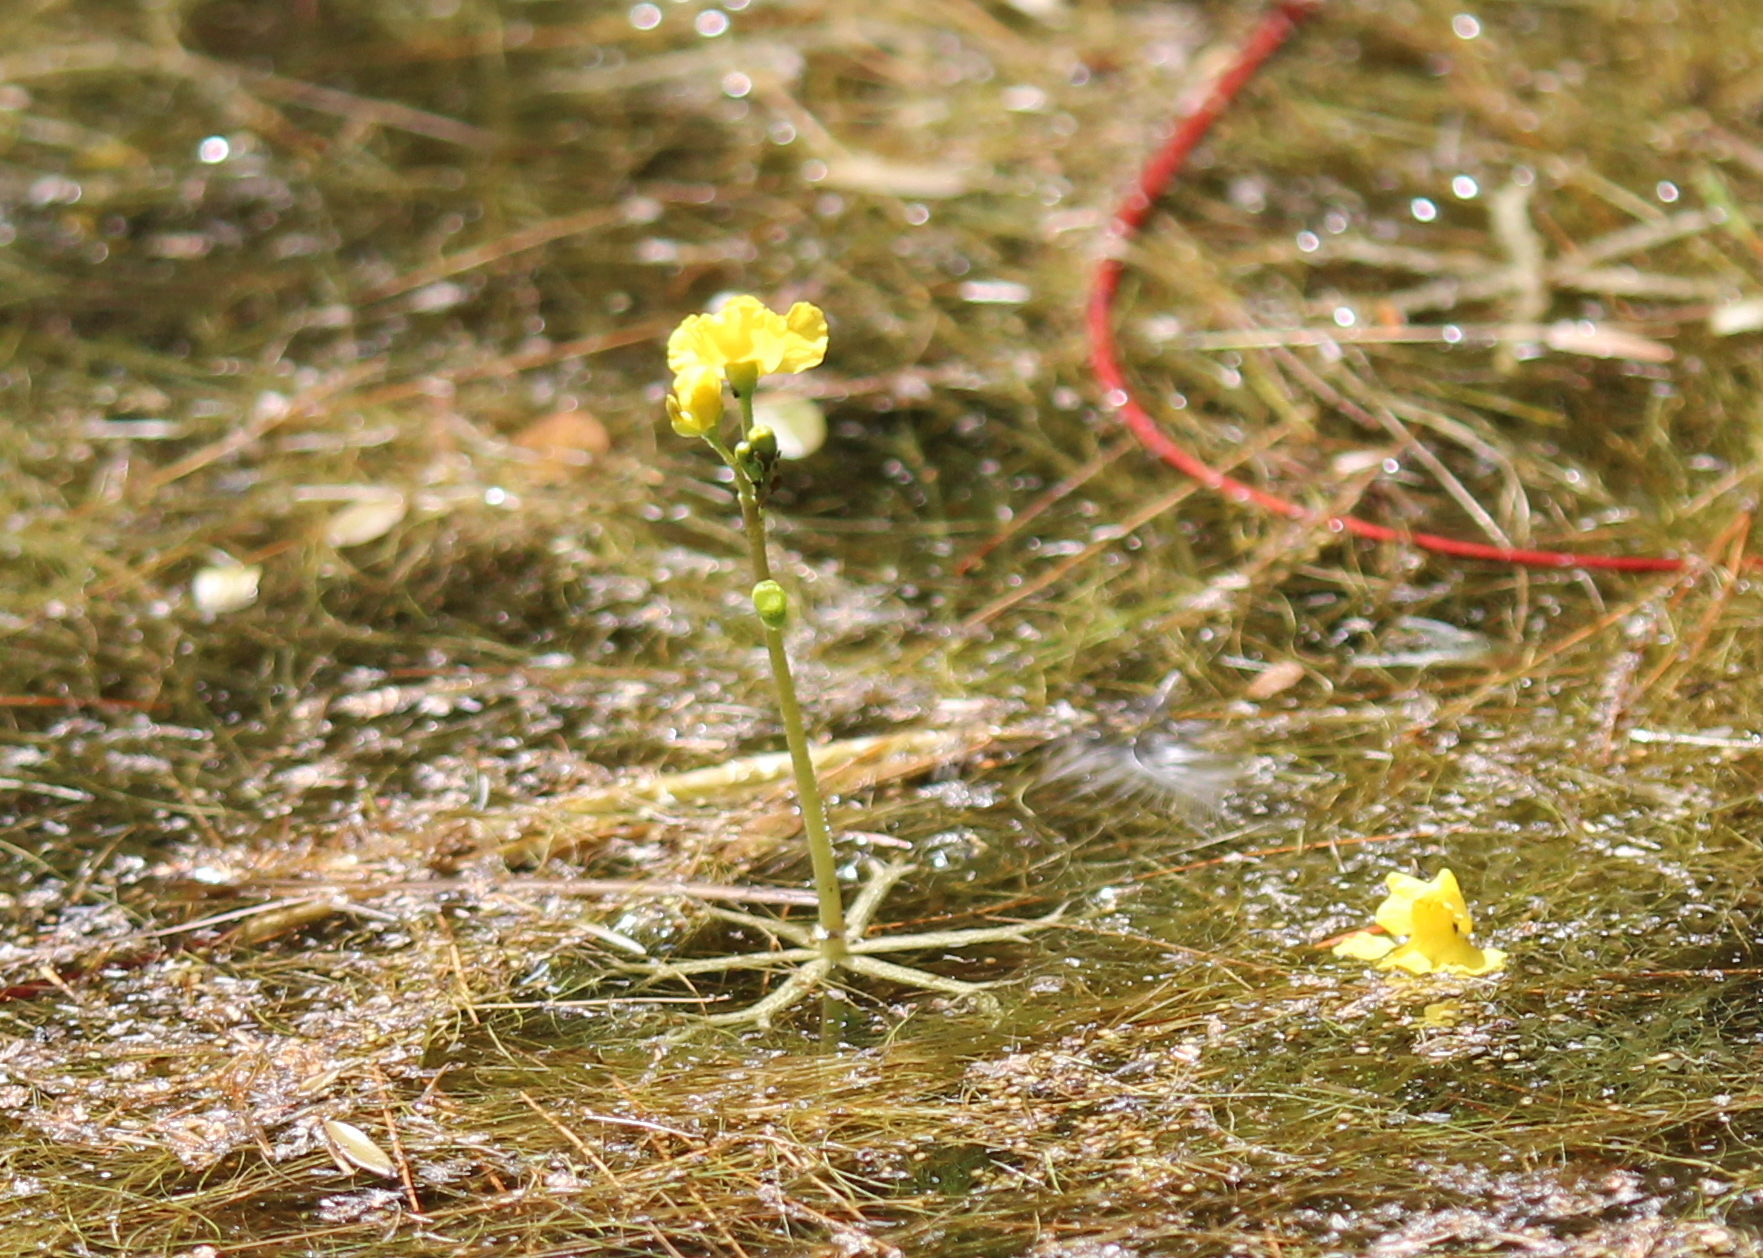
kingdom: Plantae
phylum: Tracheophyta
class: Magnoliopsida
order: Lamiales
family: Lentibulariaceae
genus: Utricularia
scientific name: Utricularia radiata
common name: Floating bladderwort
